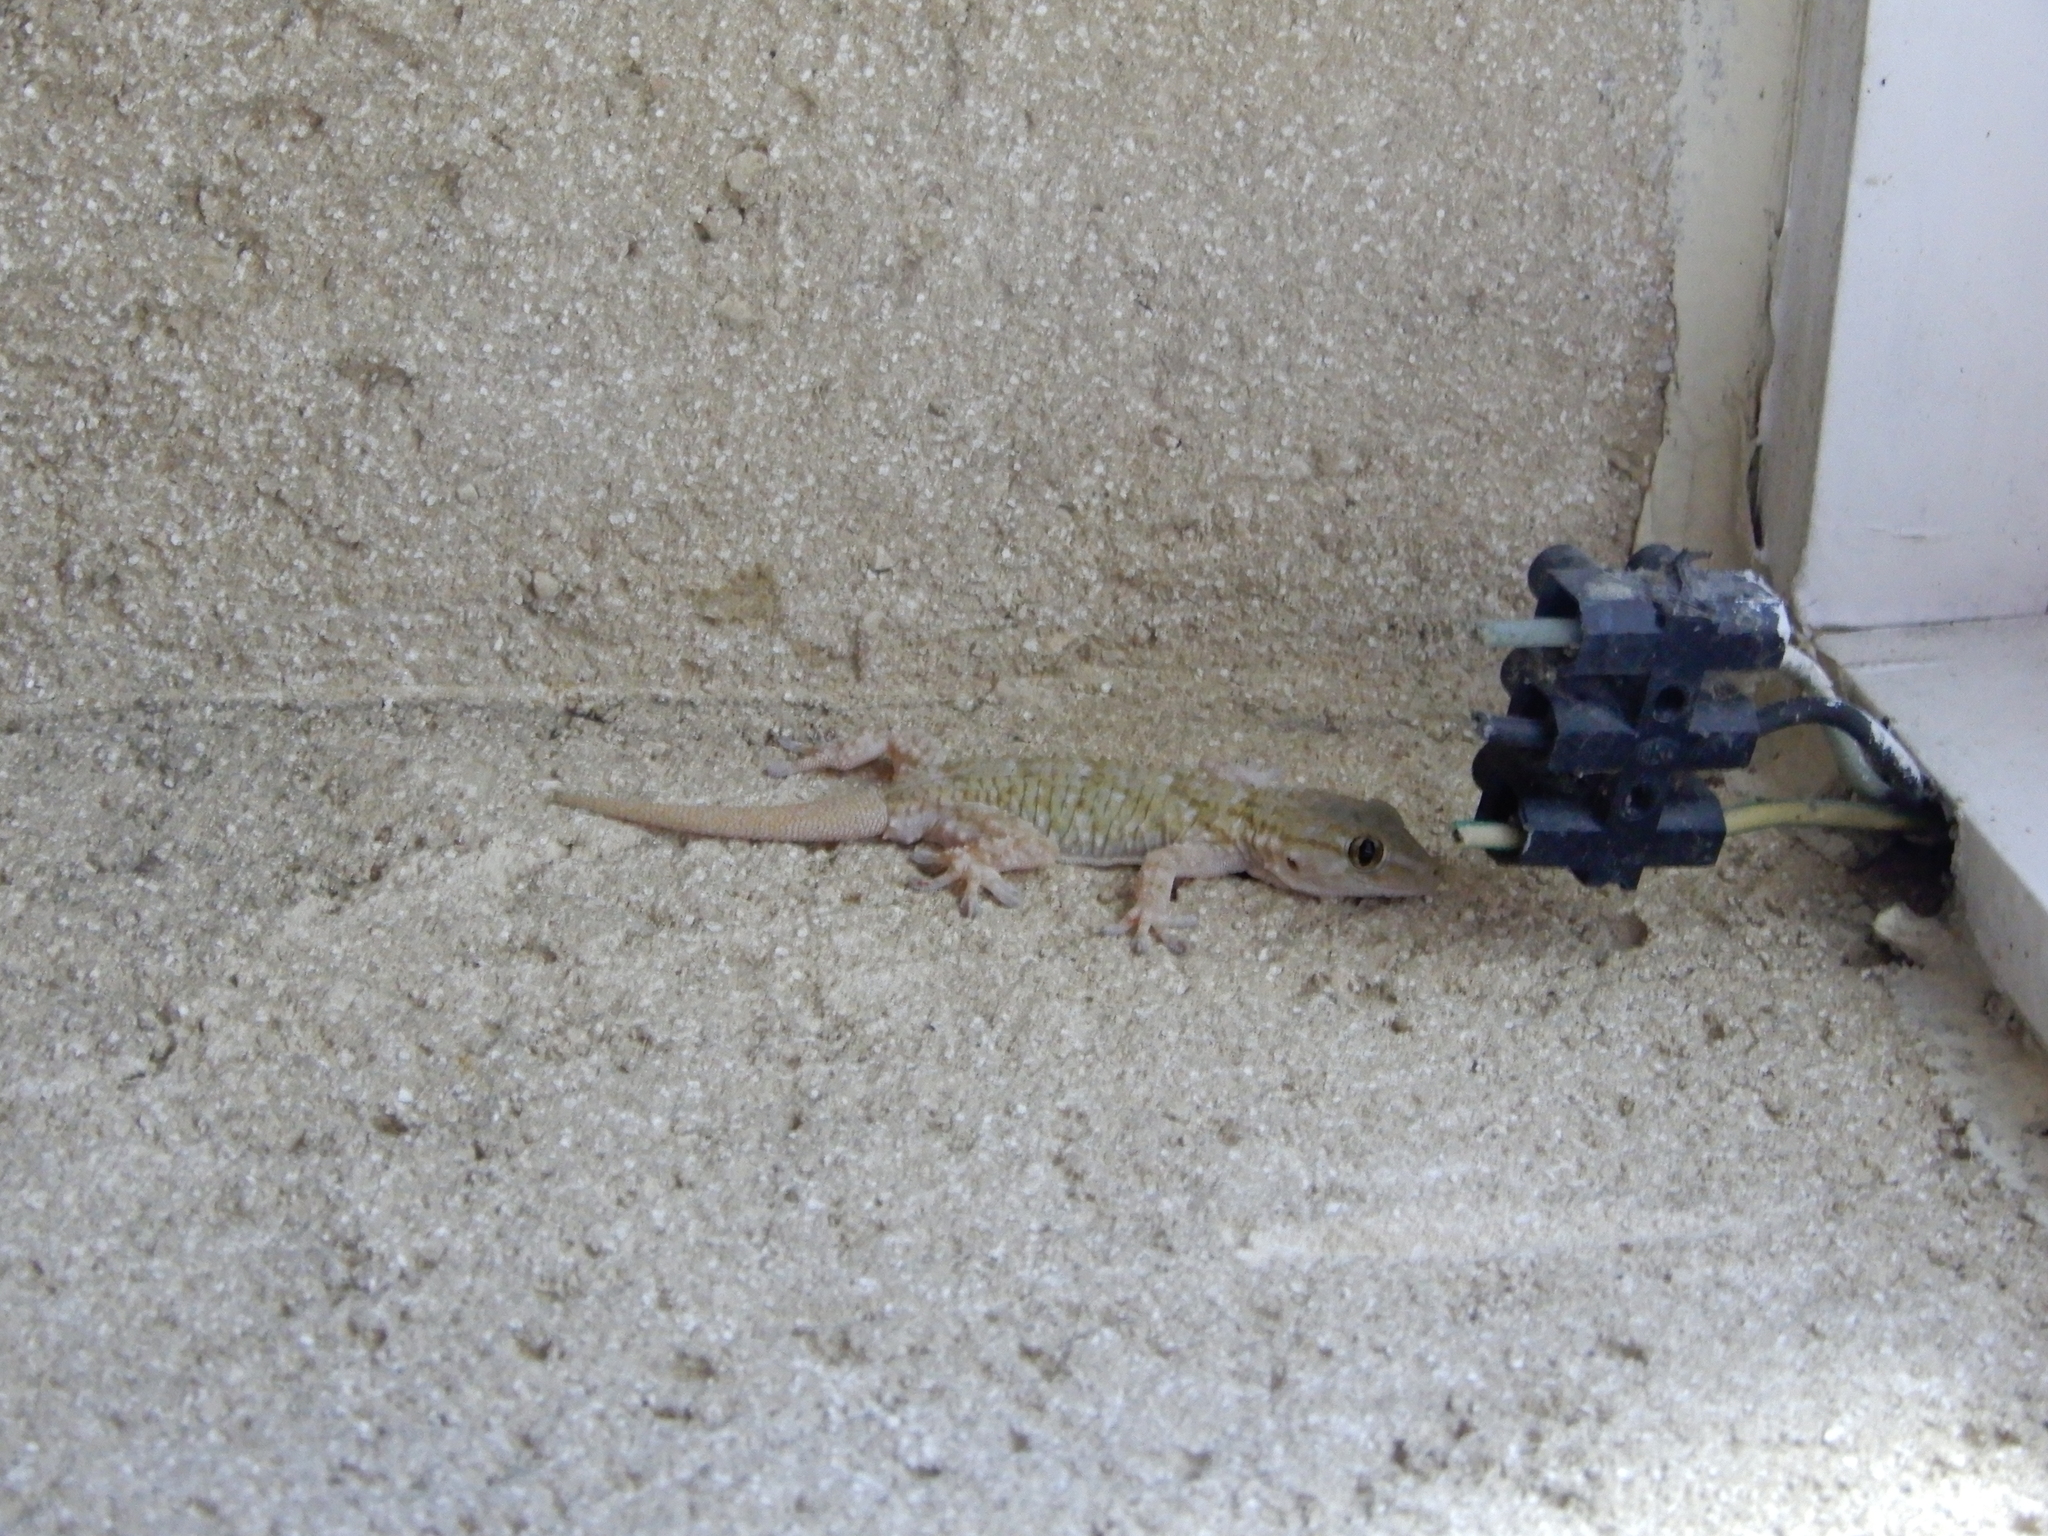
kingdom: Animalia
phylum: Chordata
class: Squamata
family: Phyllodactylidae
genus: Tarentola
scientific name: Tarentola mauritanica
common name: Moorish gecko
